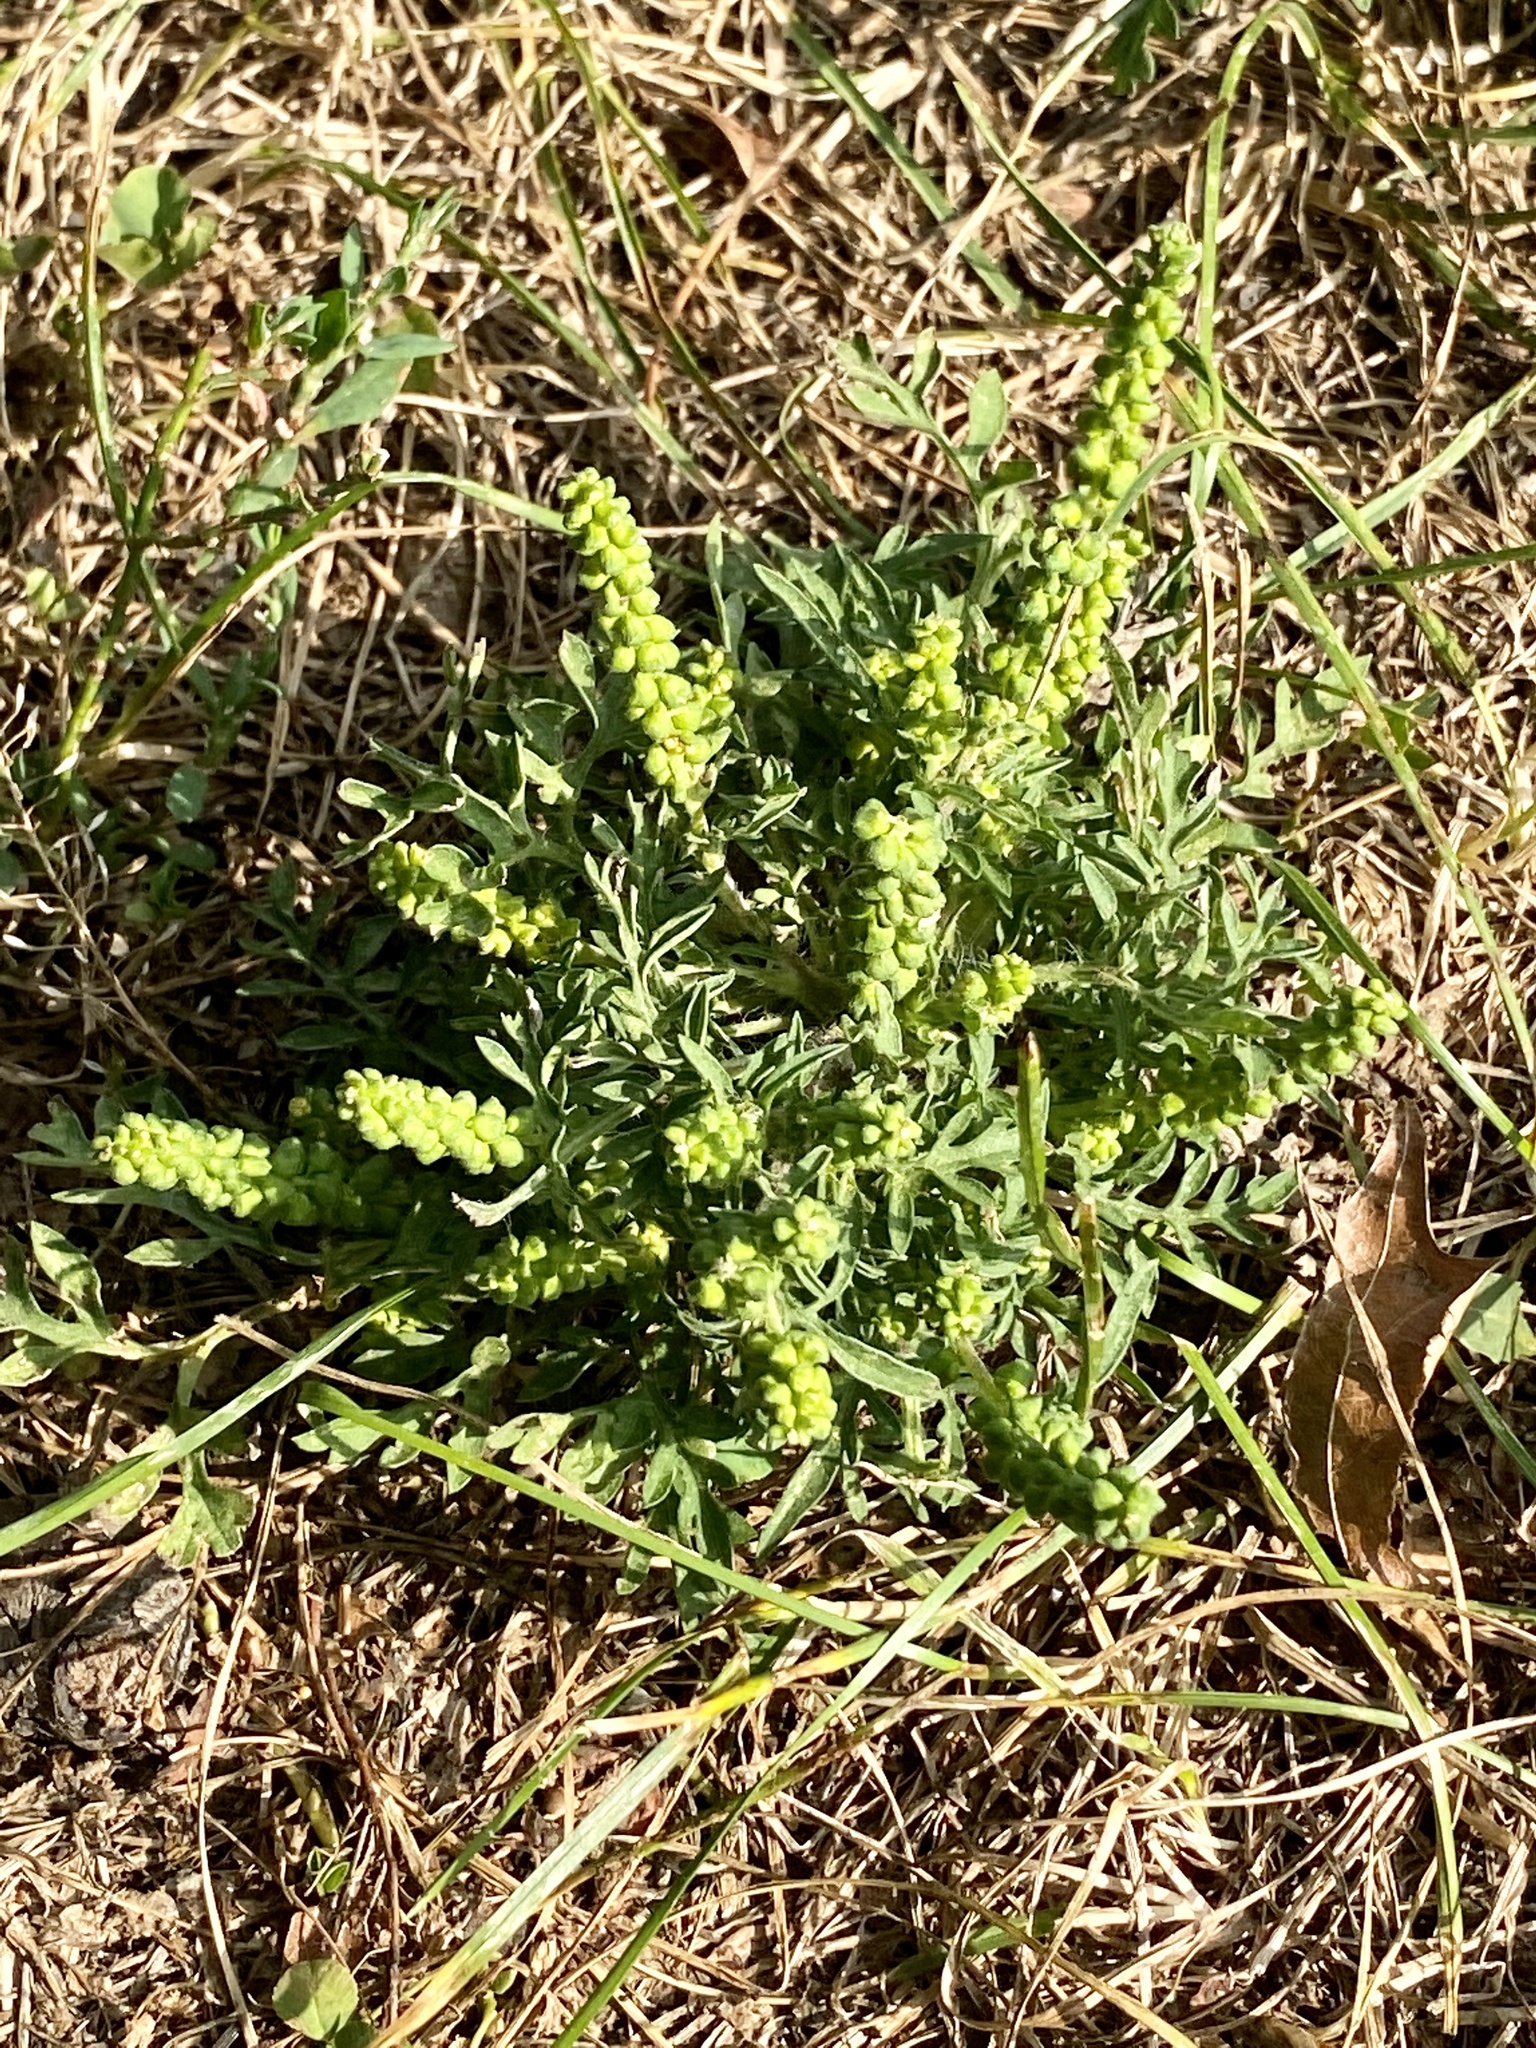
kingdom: Plantae
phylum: Tracheophyta
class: Magnoliopsida
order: Asterales
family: Asteraceae
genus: Ambrosia
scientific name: Ambrosia artemisiifolia
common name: Annual ragweed
